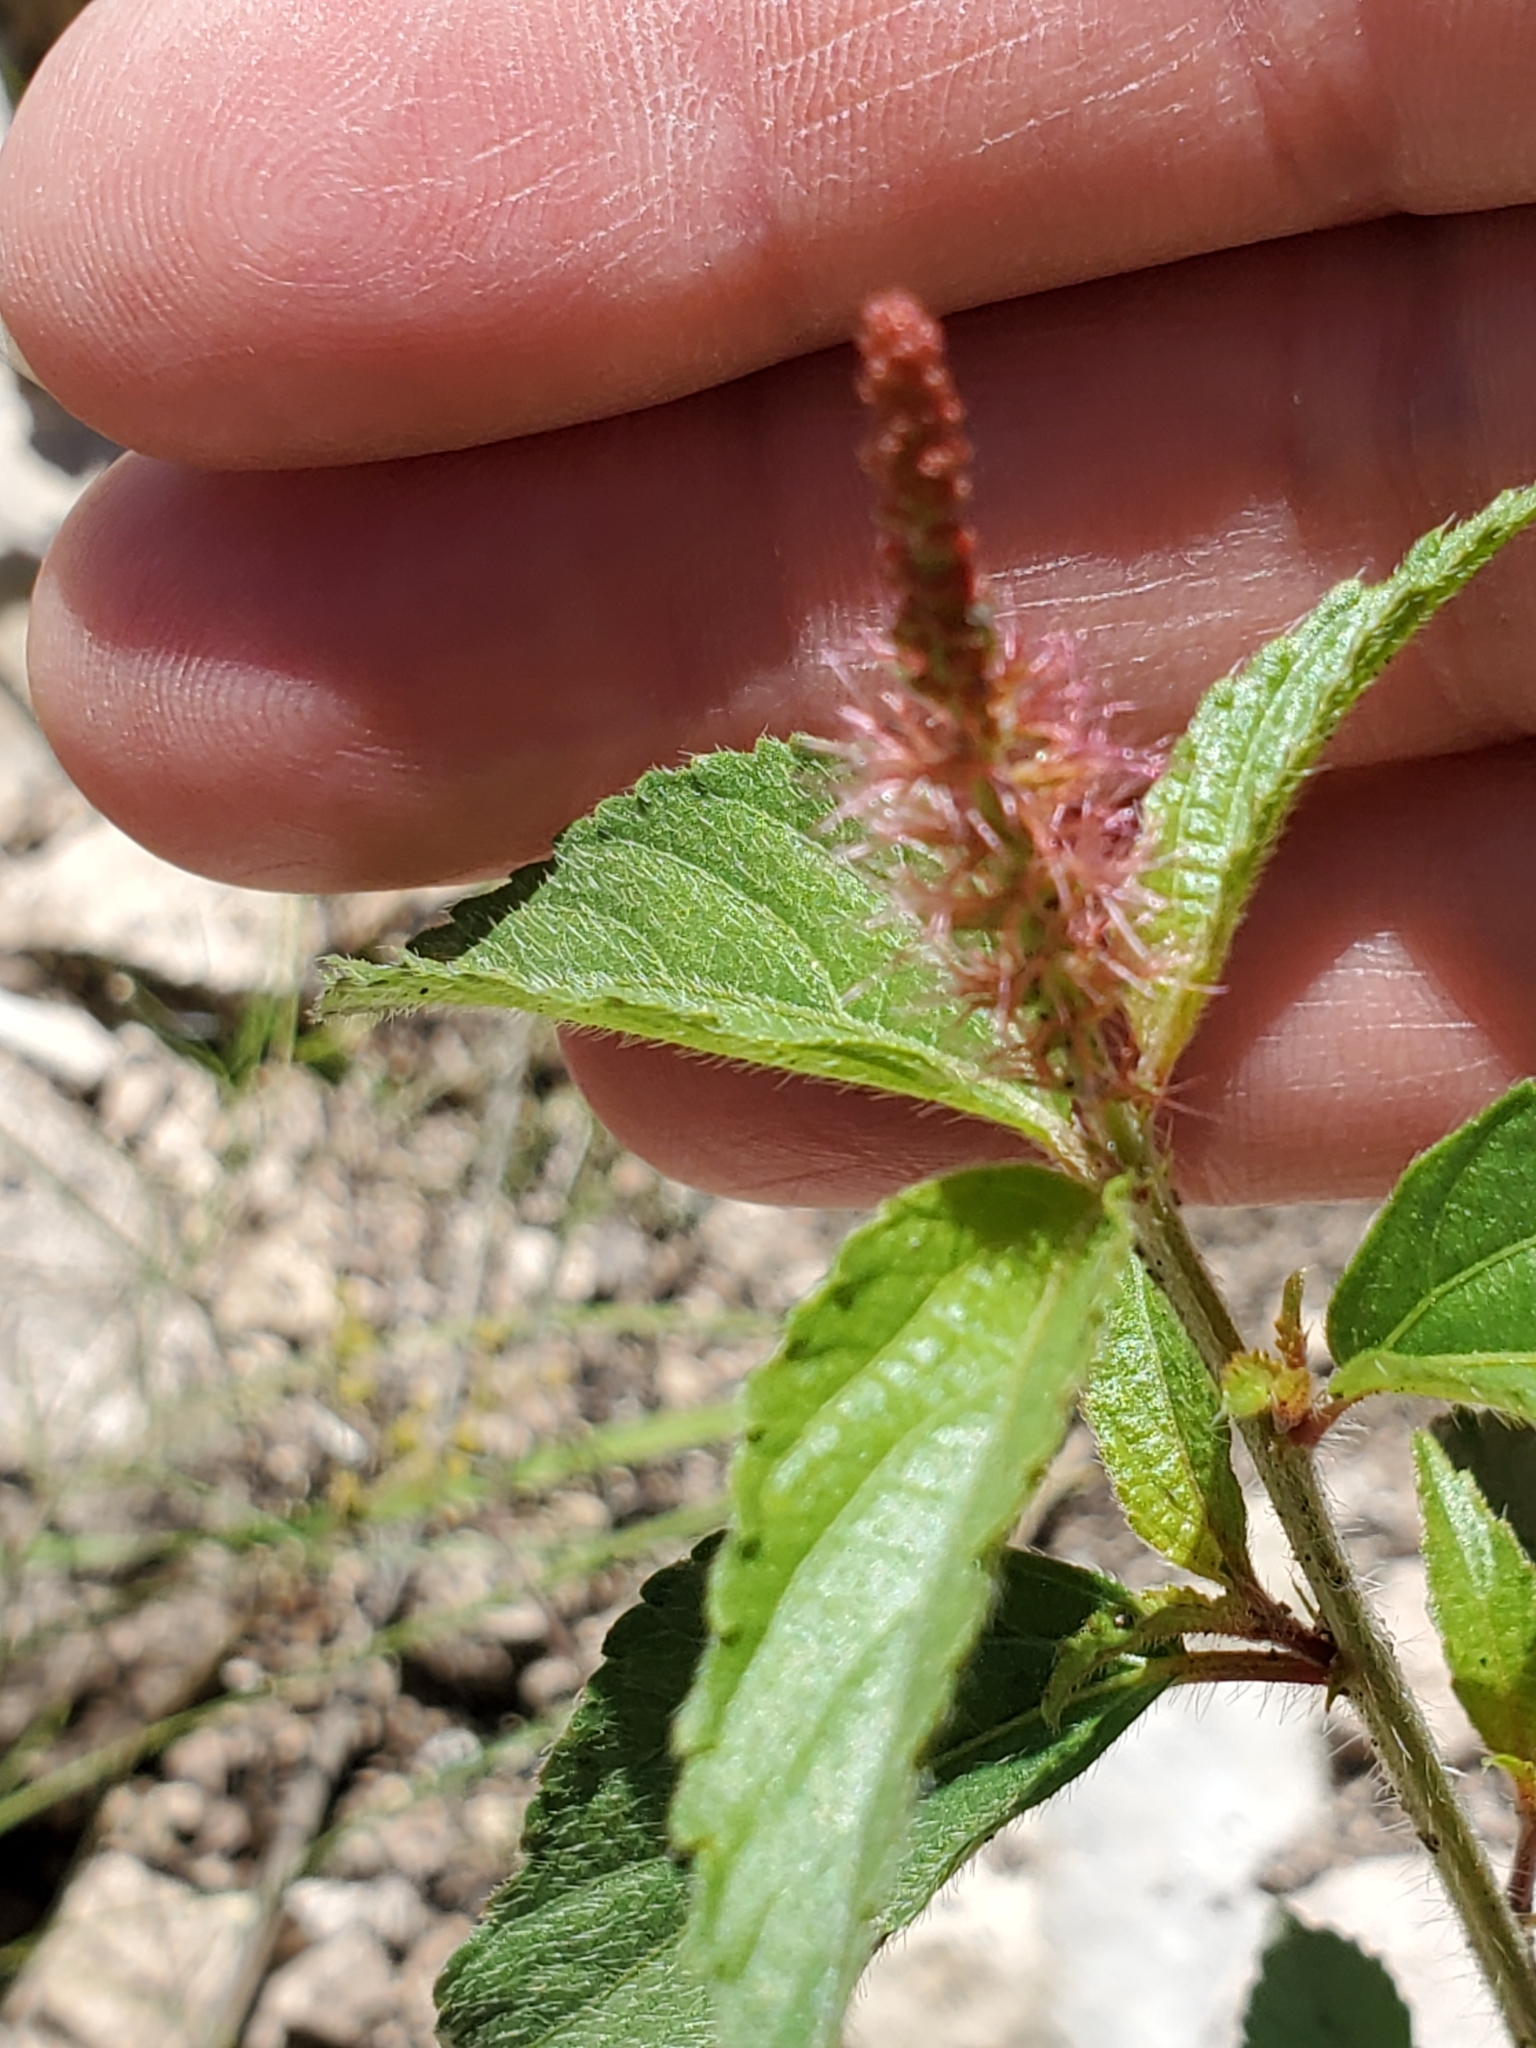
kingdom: Plantae
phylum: Tracheophyta
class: Magnoliopsida
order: Malpighiales
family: Euphorbiaceae
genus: Acalypha
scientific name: Acalypha phleoides
